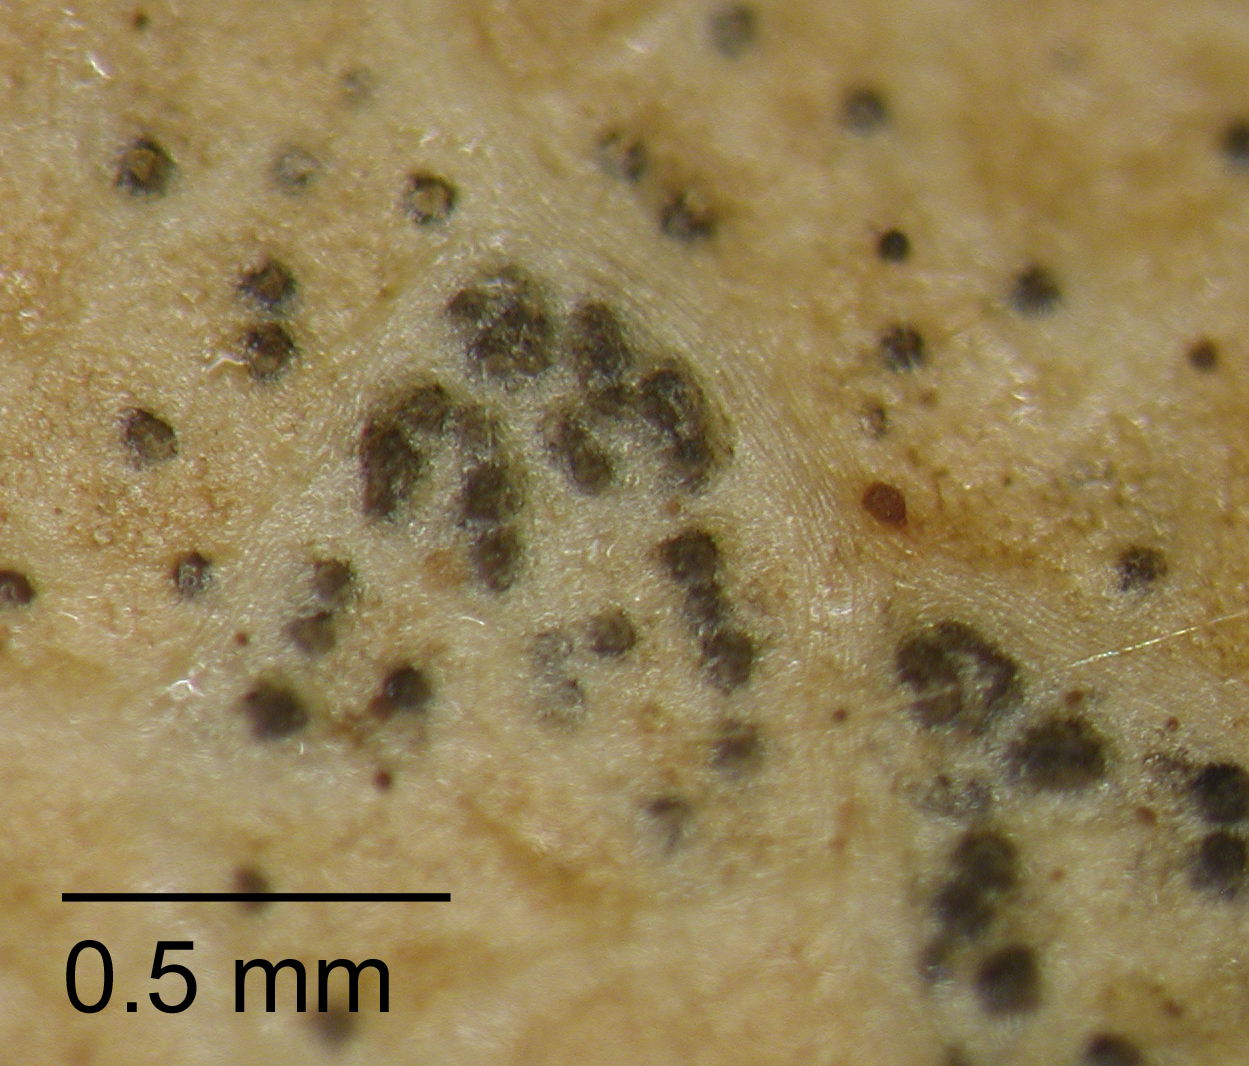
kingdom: Fungi
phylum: Ascomycota
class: Dothideomycetes
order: Mycosphaerellales
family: Mycosphaerellaceae
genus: Mycosphaerella
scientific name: Mycosphaerella cunninghamii
